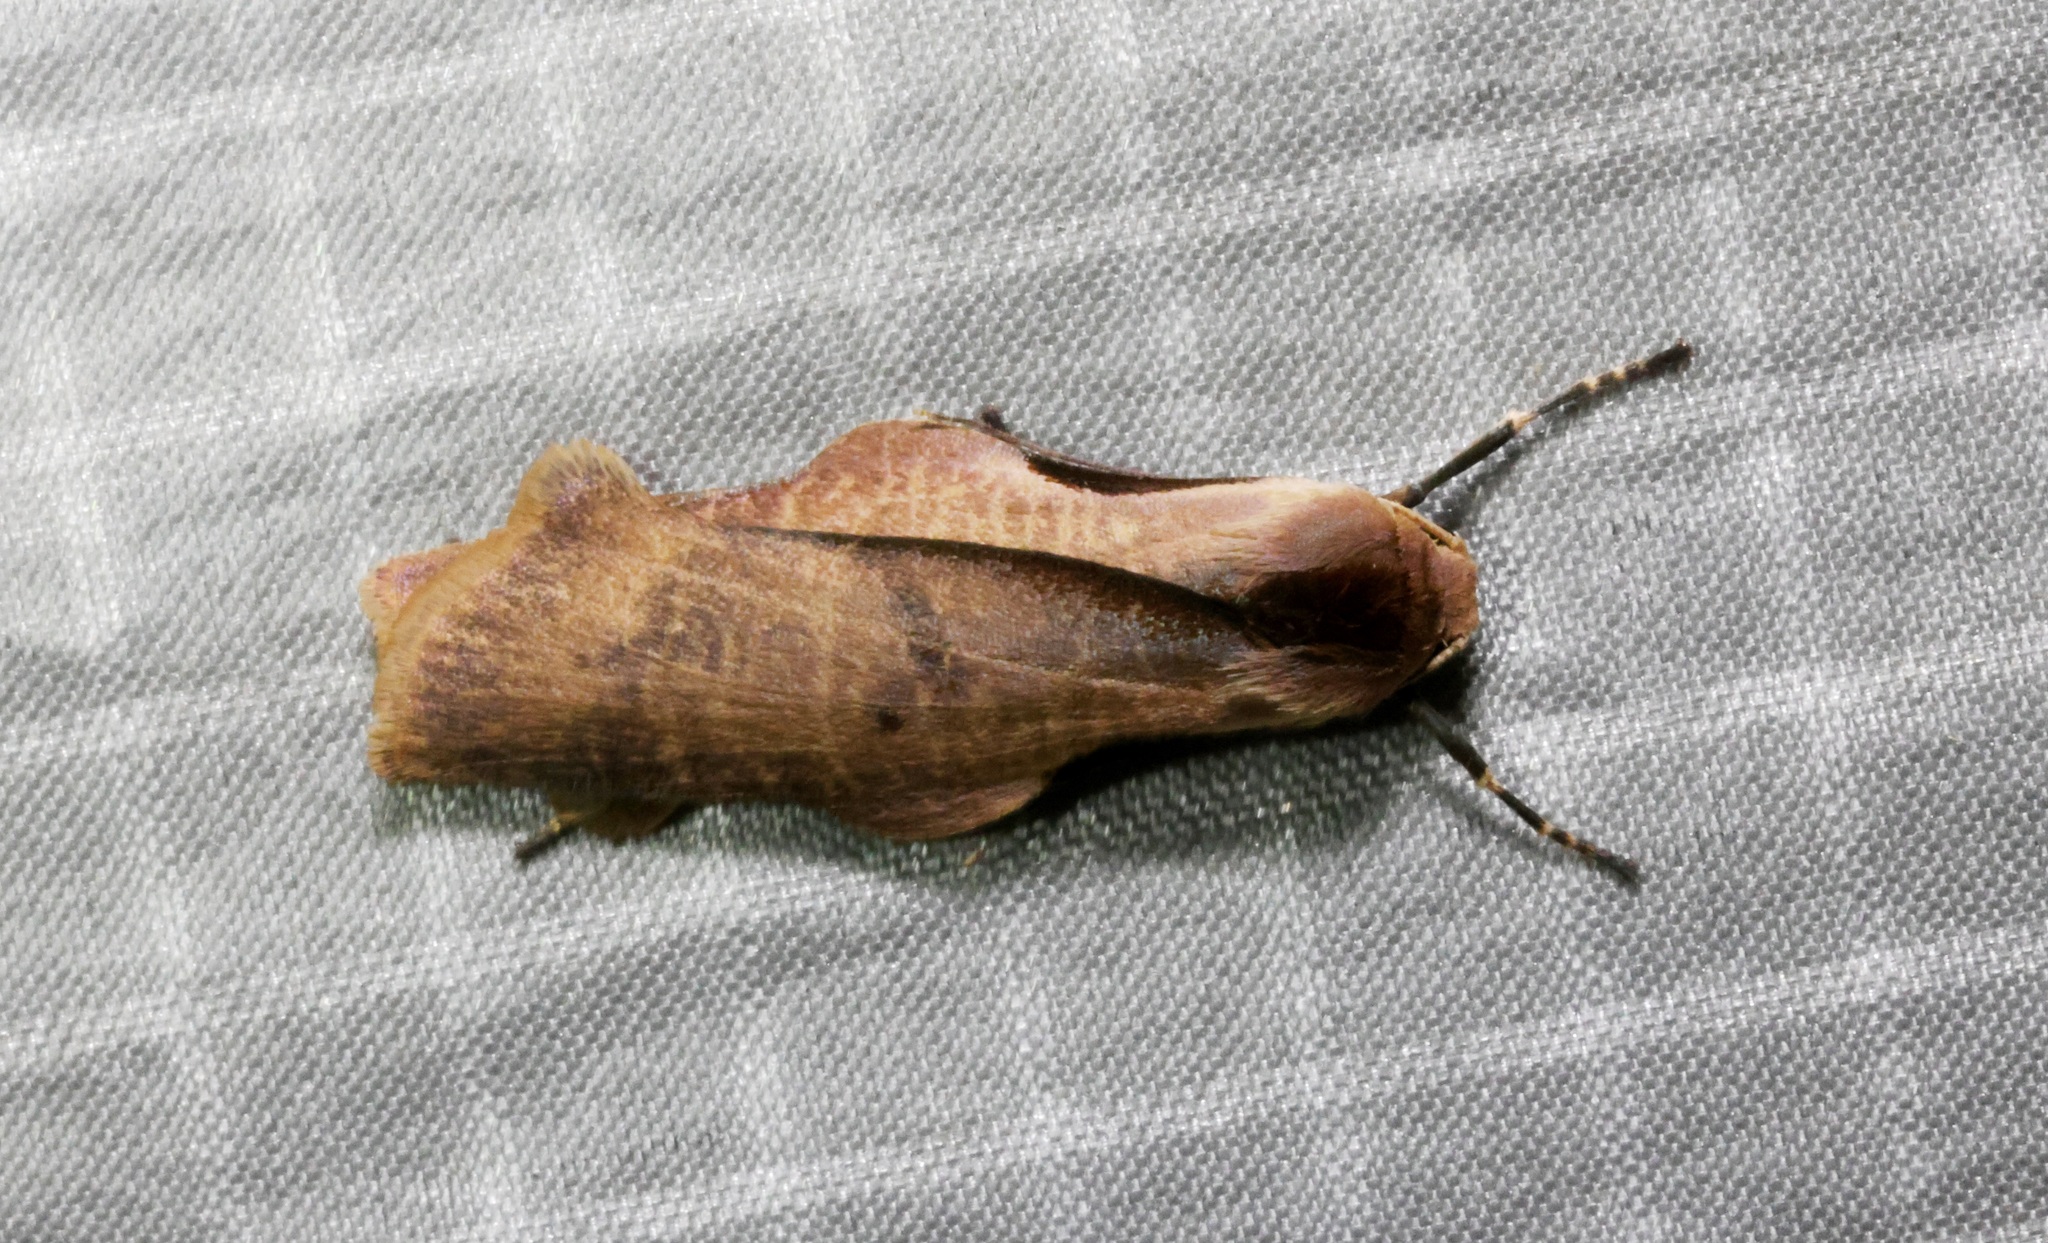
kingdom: Animalia
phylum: Arthropoda
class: Insecta
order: Lepidoptera
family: Erebidae
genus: Teulisna
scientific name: Teulisna tumida
